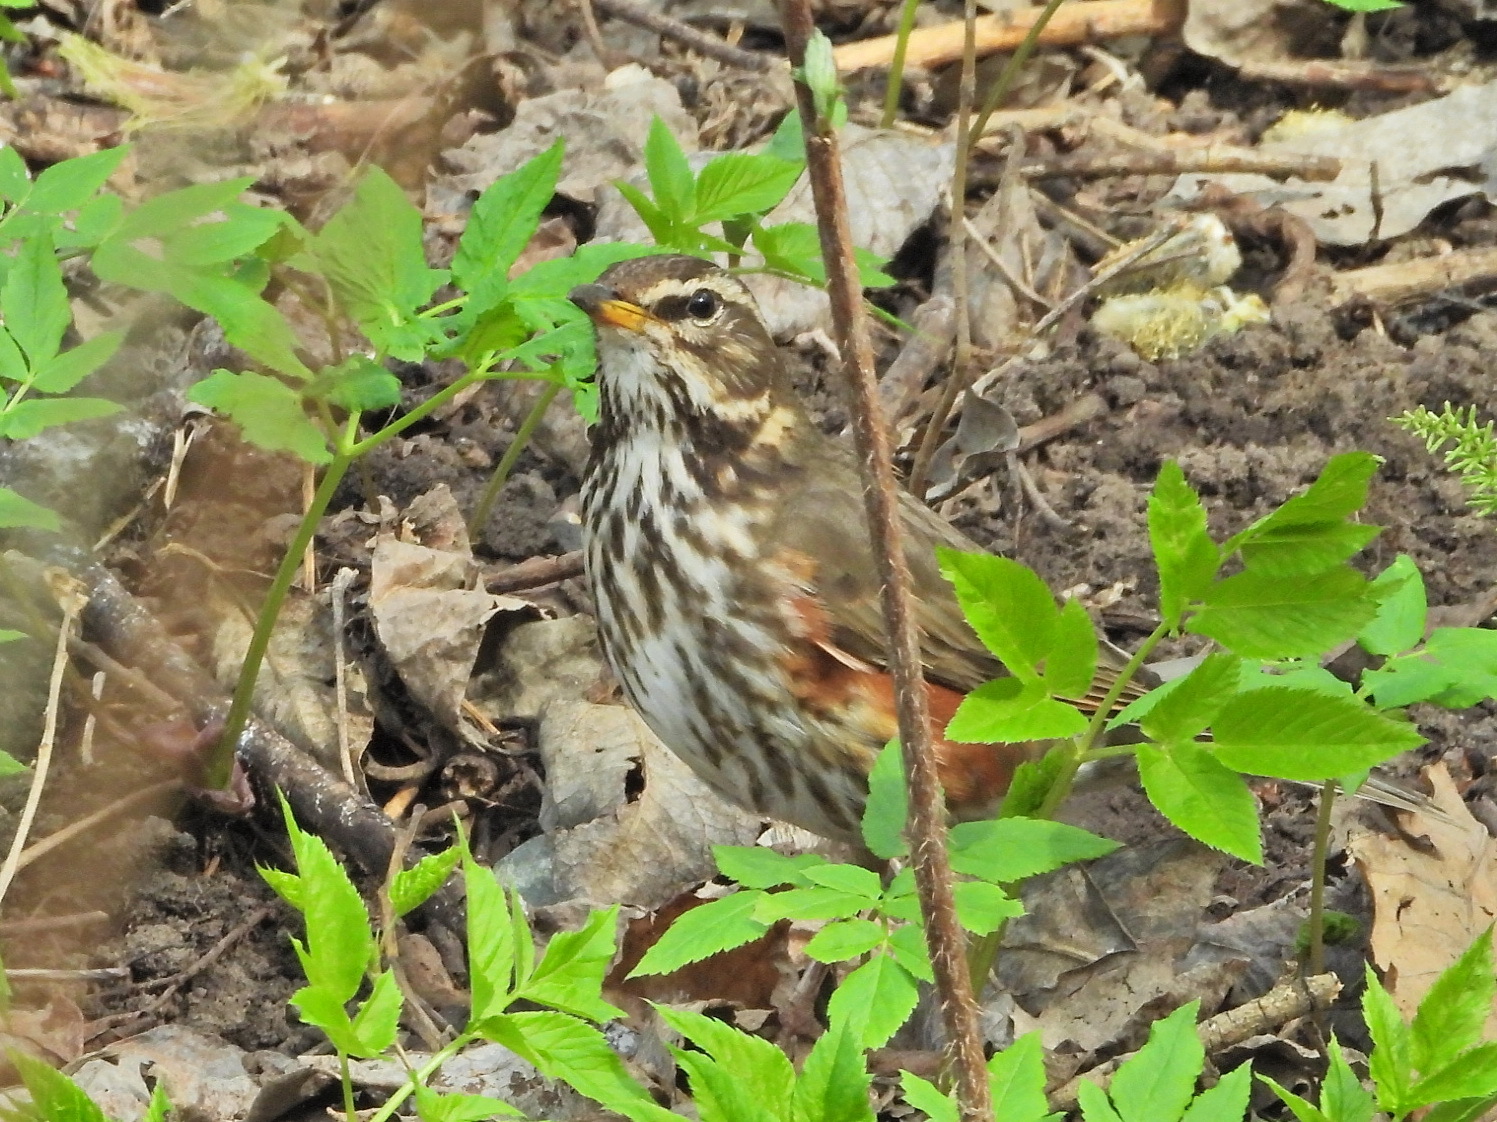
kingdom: Animalia
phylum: Chordata
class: Aves
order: Passeriformes
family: Turdidae
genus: Turdus
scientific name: Turdus iliacus
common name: Redwing
